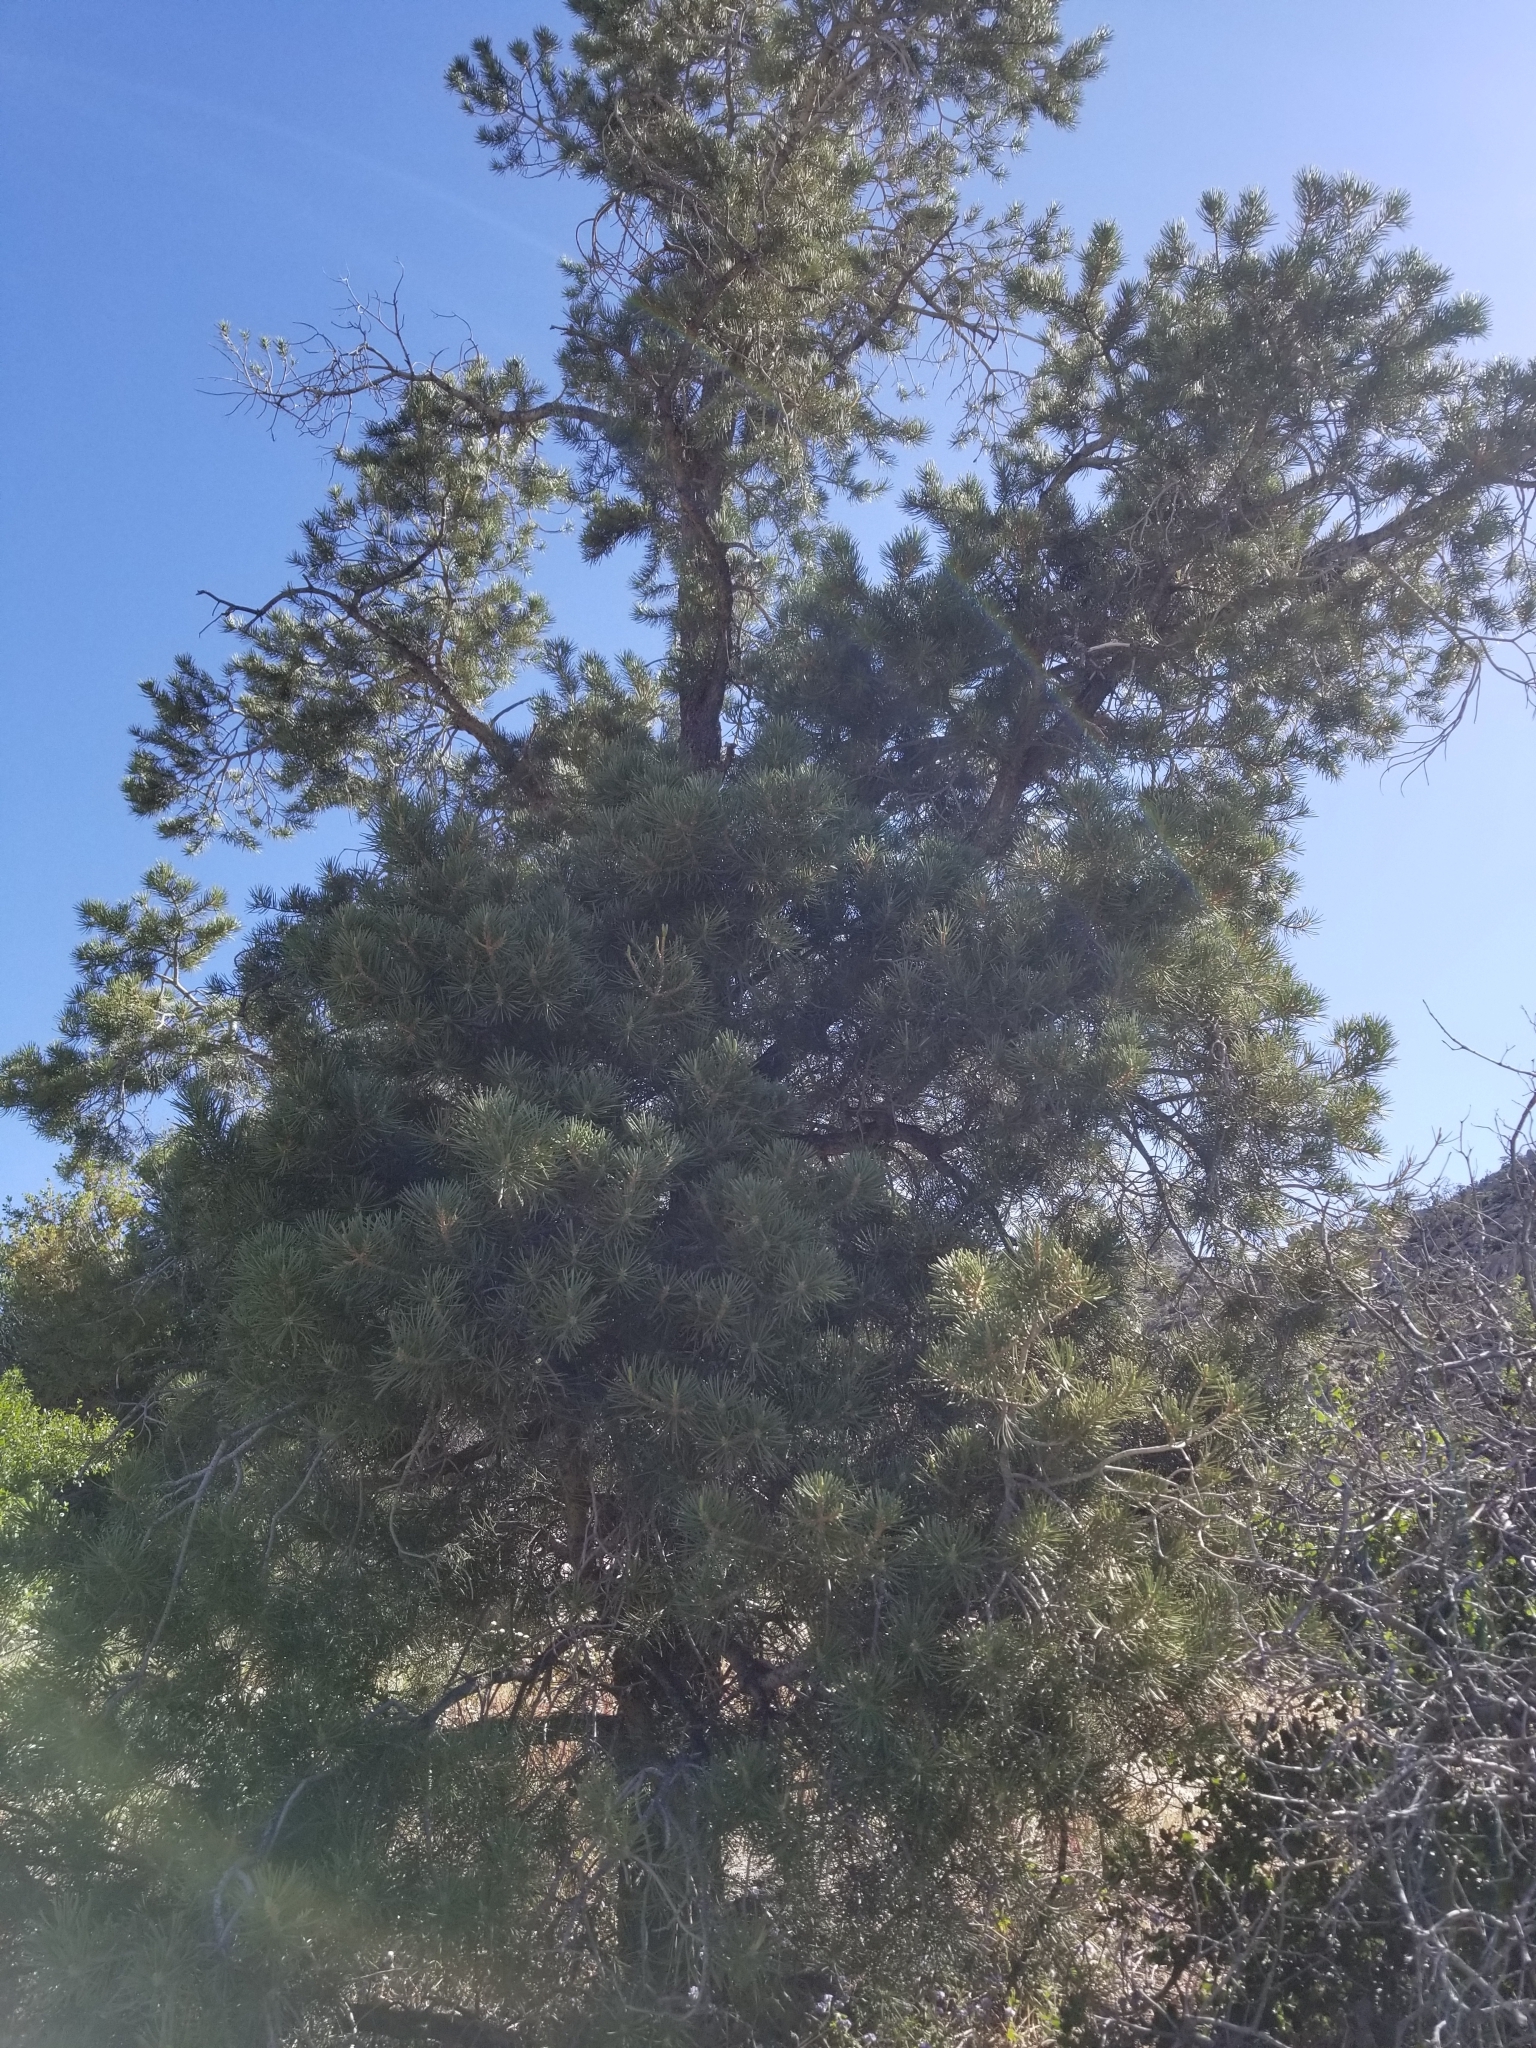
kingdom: Plantae
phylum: Tracheophyta
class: Pinopsida
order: Pinales
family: Pinaceae
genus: Pinus
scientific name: Pinus monophylla
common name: One-leaved nut pine
